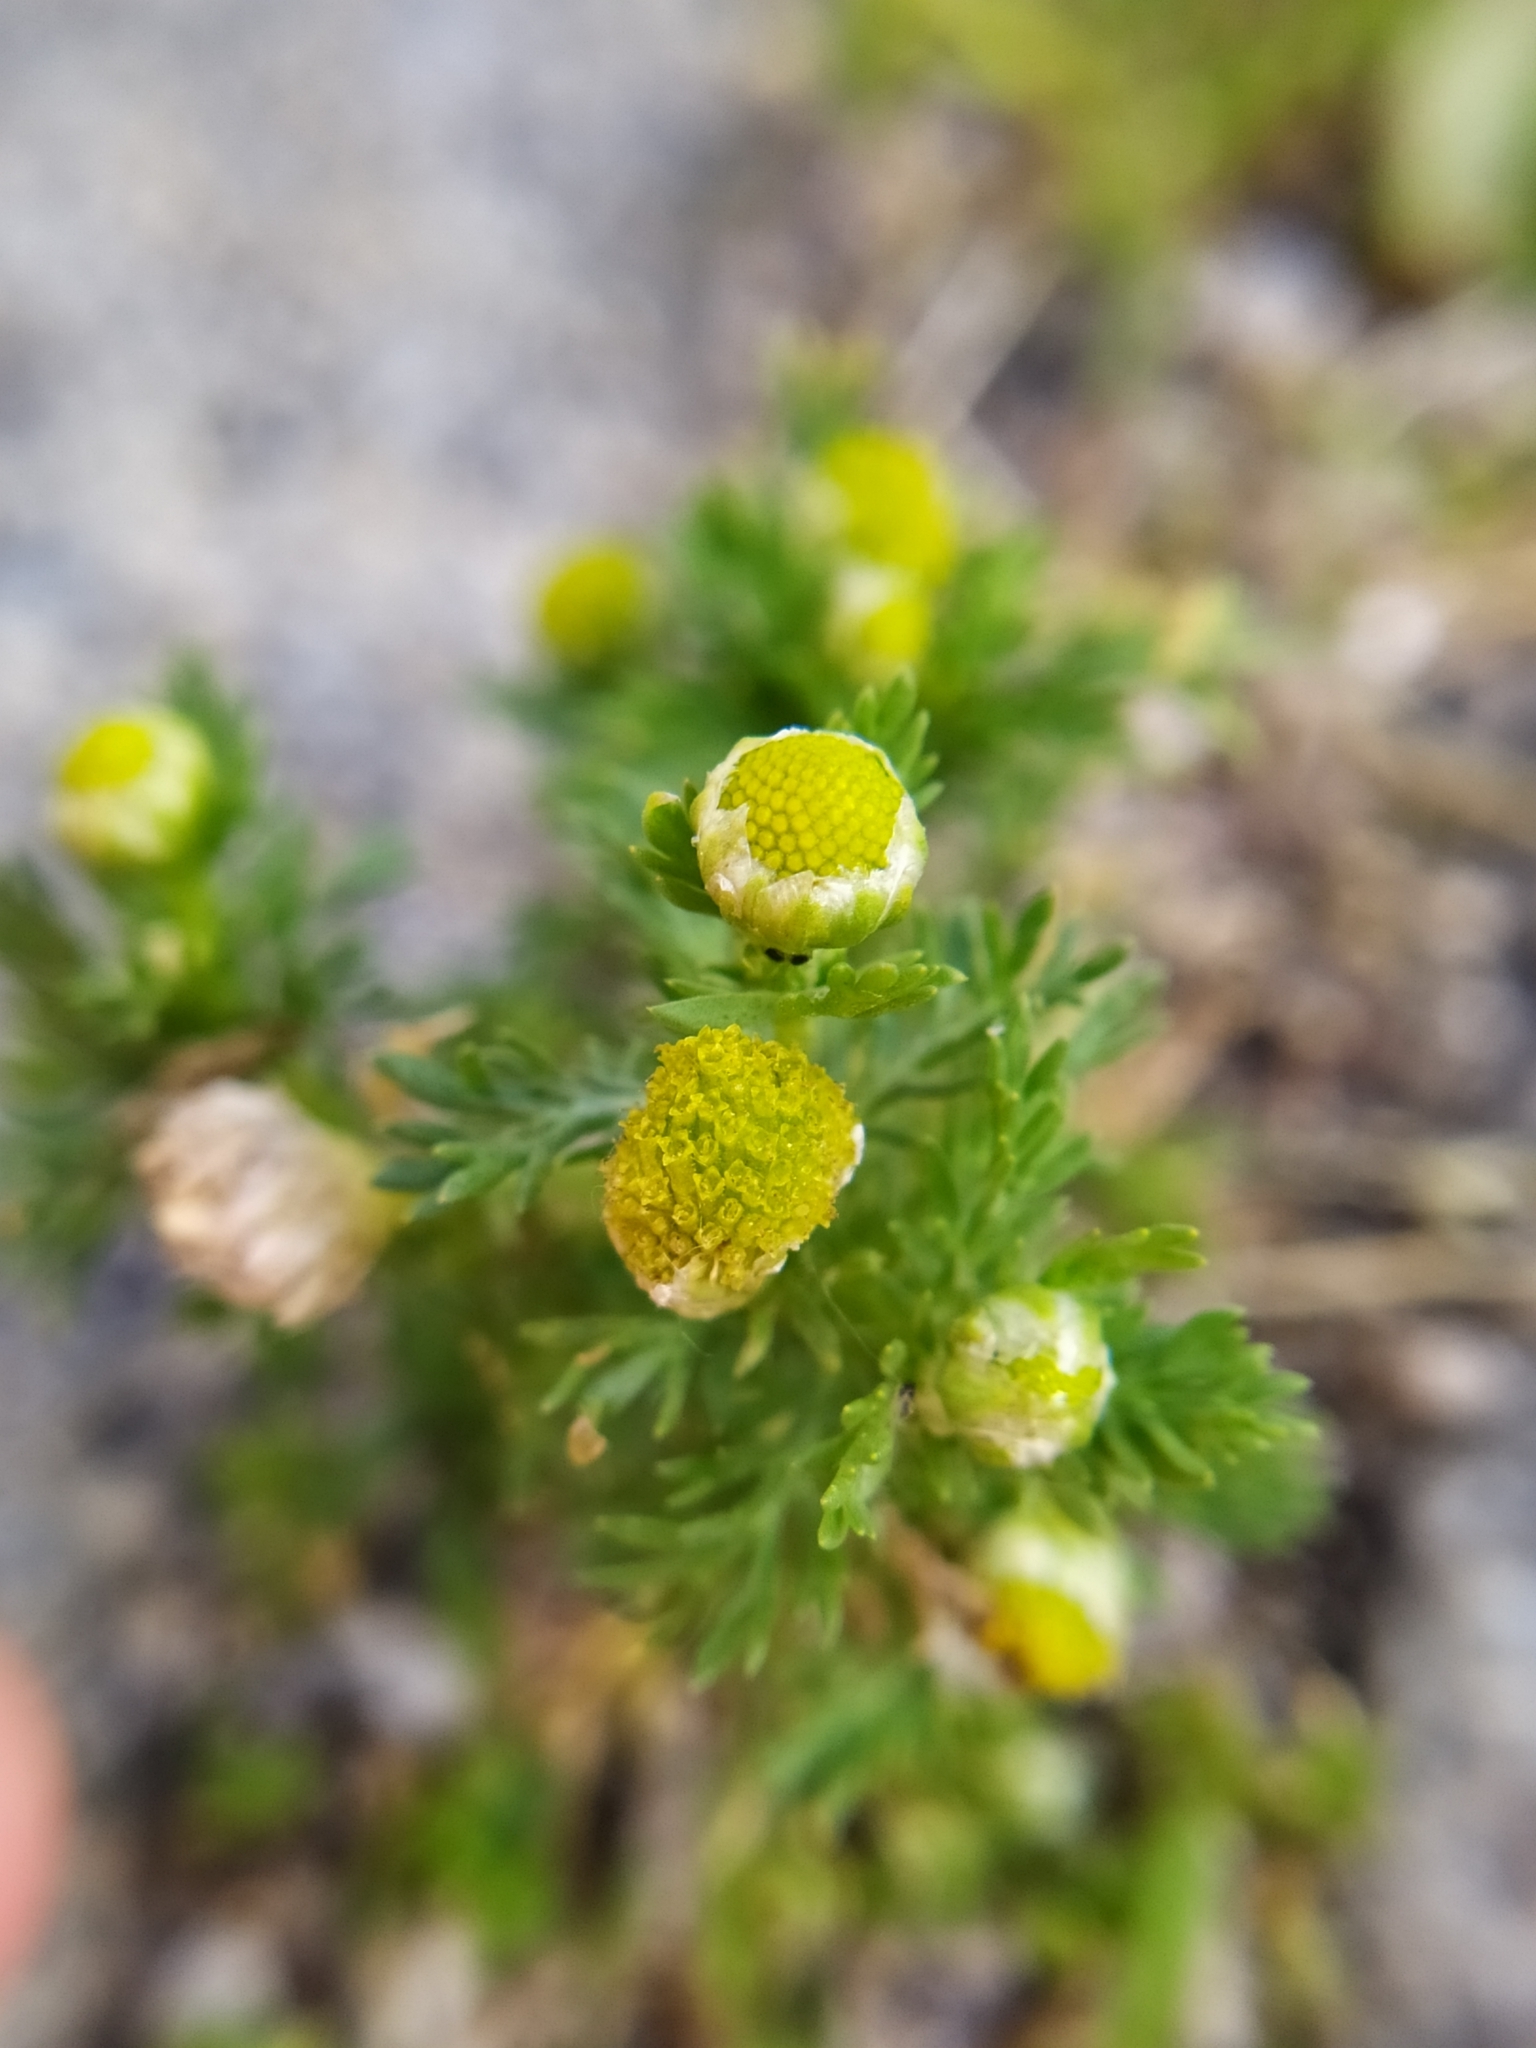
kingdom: Plantae
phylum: Tracheophyta
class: Magnoliopsida
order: Asterales
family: Asteraceae
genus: Matricaria
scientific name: Matricaria discoidea
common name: Disc mayweed
